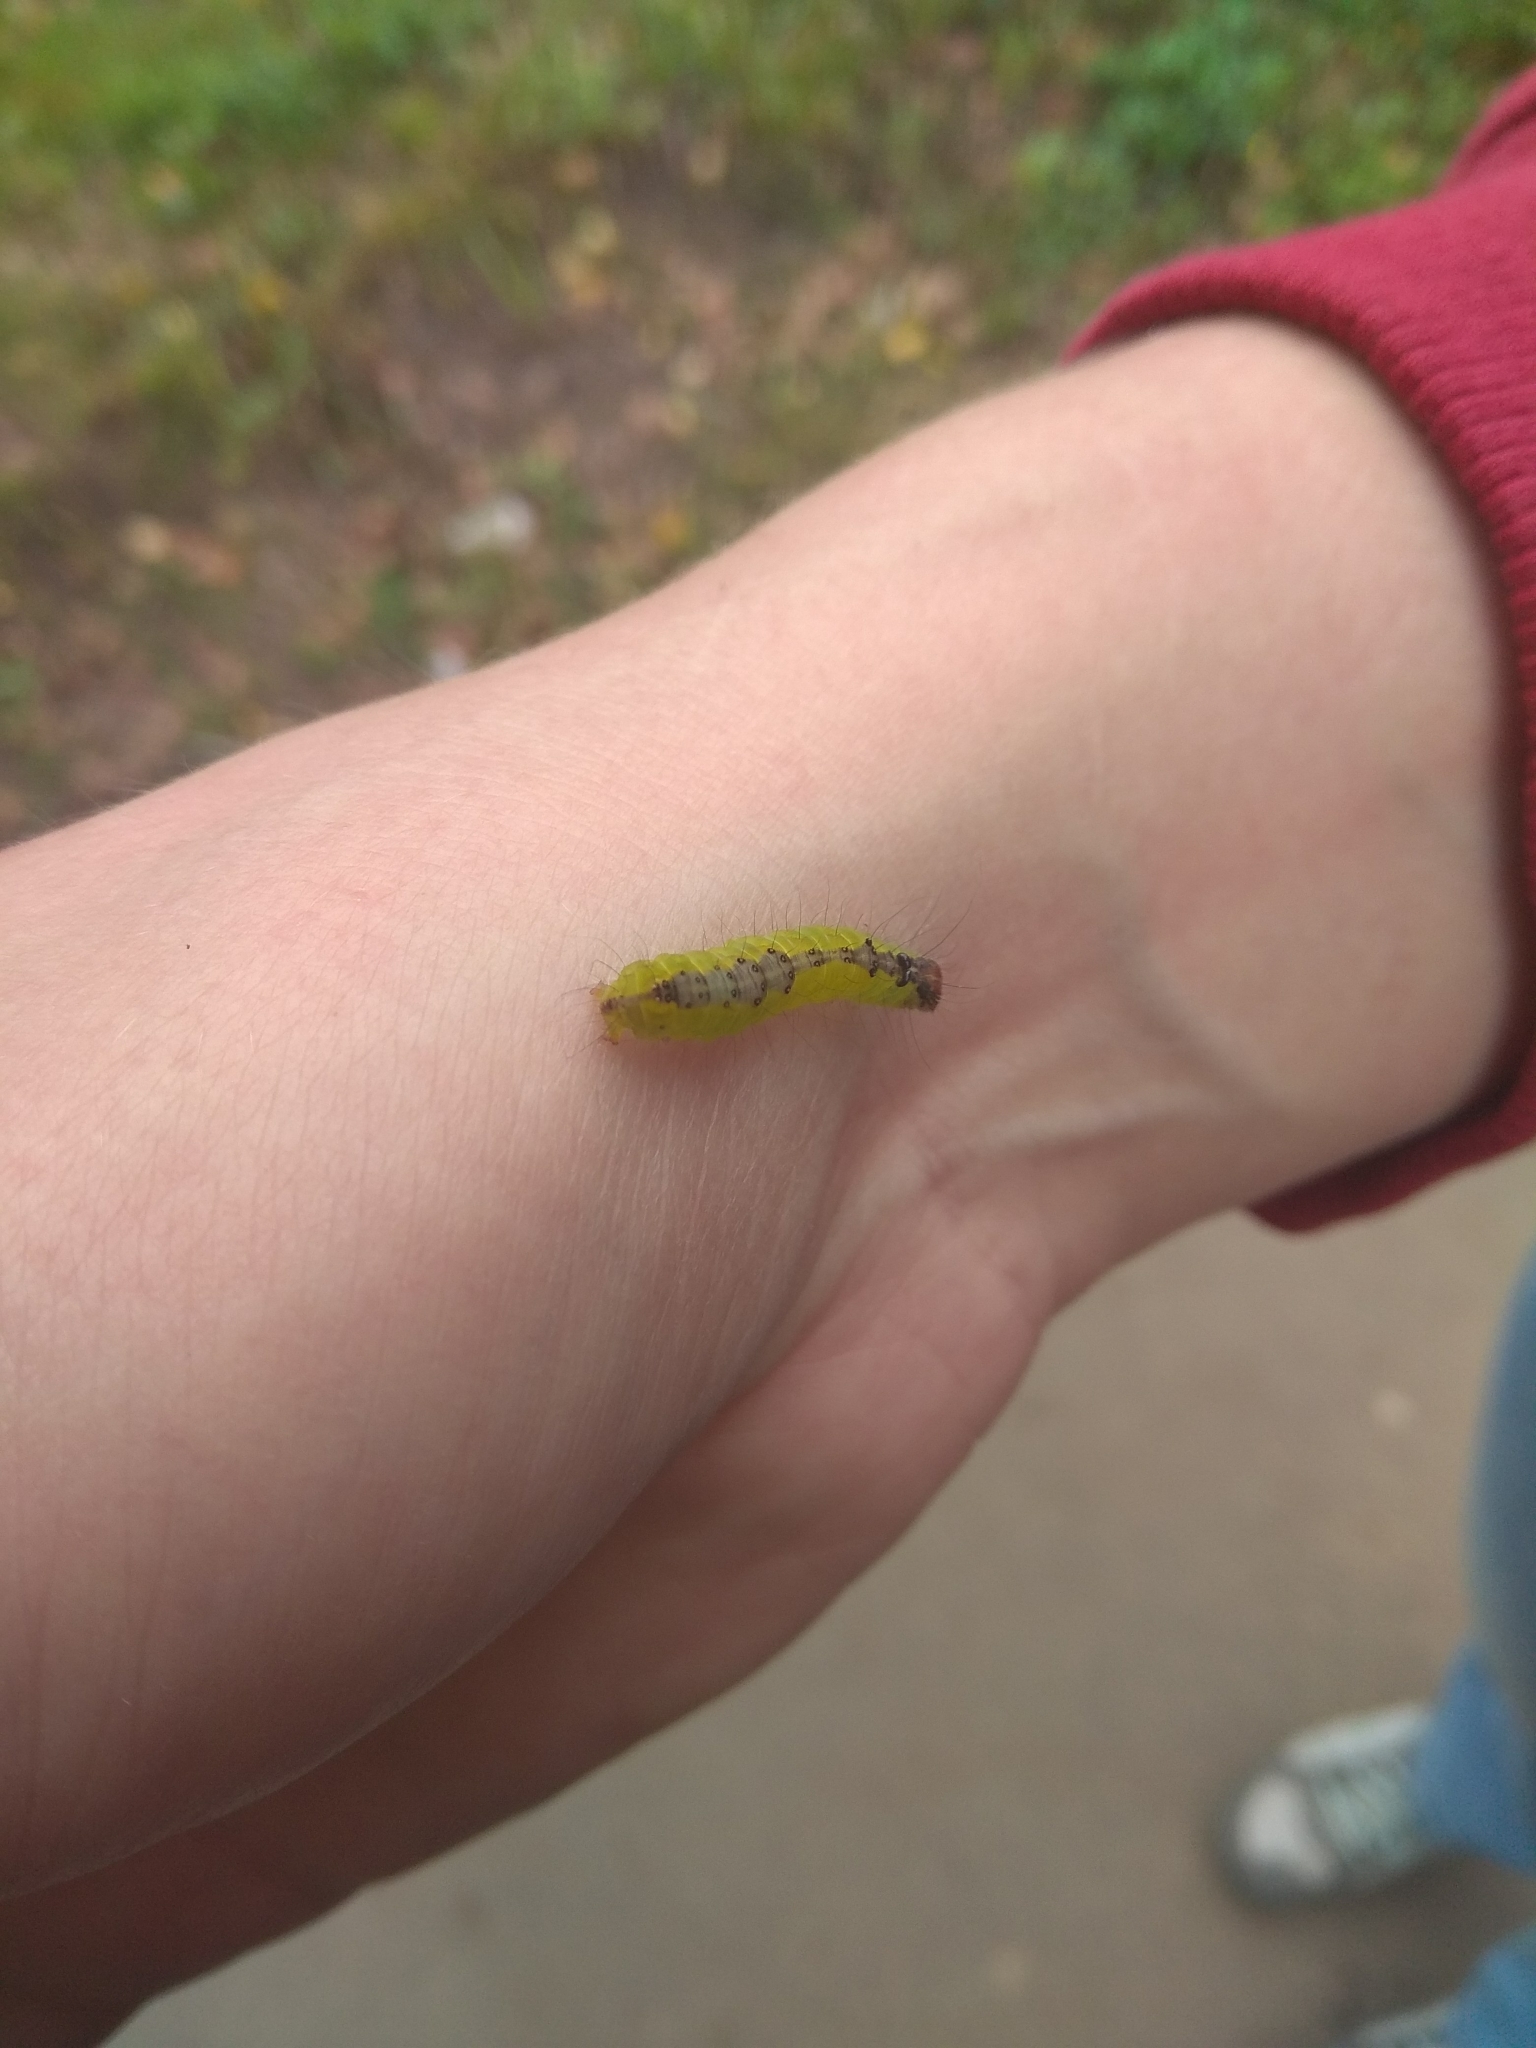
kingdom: Animalia
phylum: Arthropoda
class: Insecta
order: Lepidoptera
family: Noctuidae
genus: Acronicta
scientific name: Acronicta strigosa
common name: Marsh dagger
